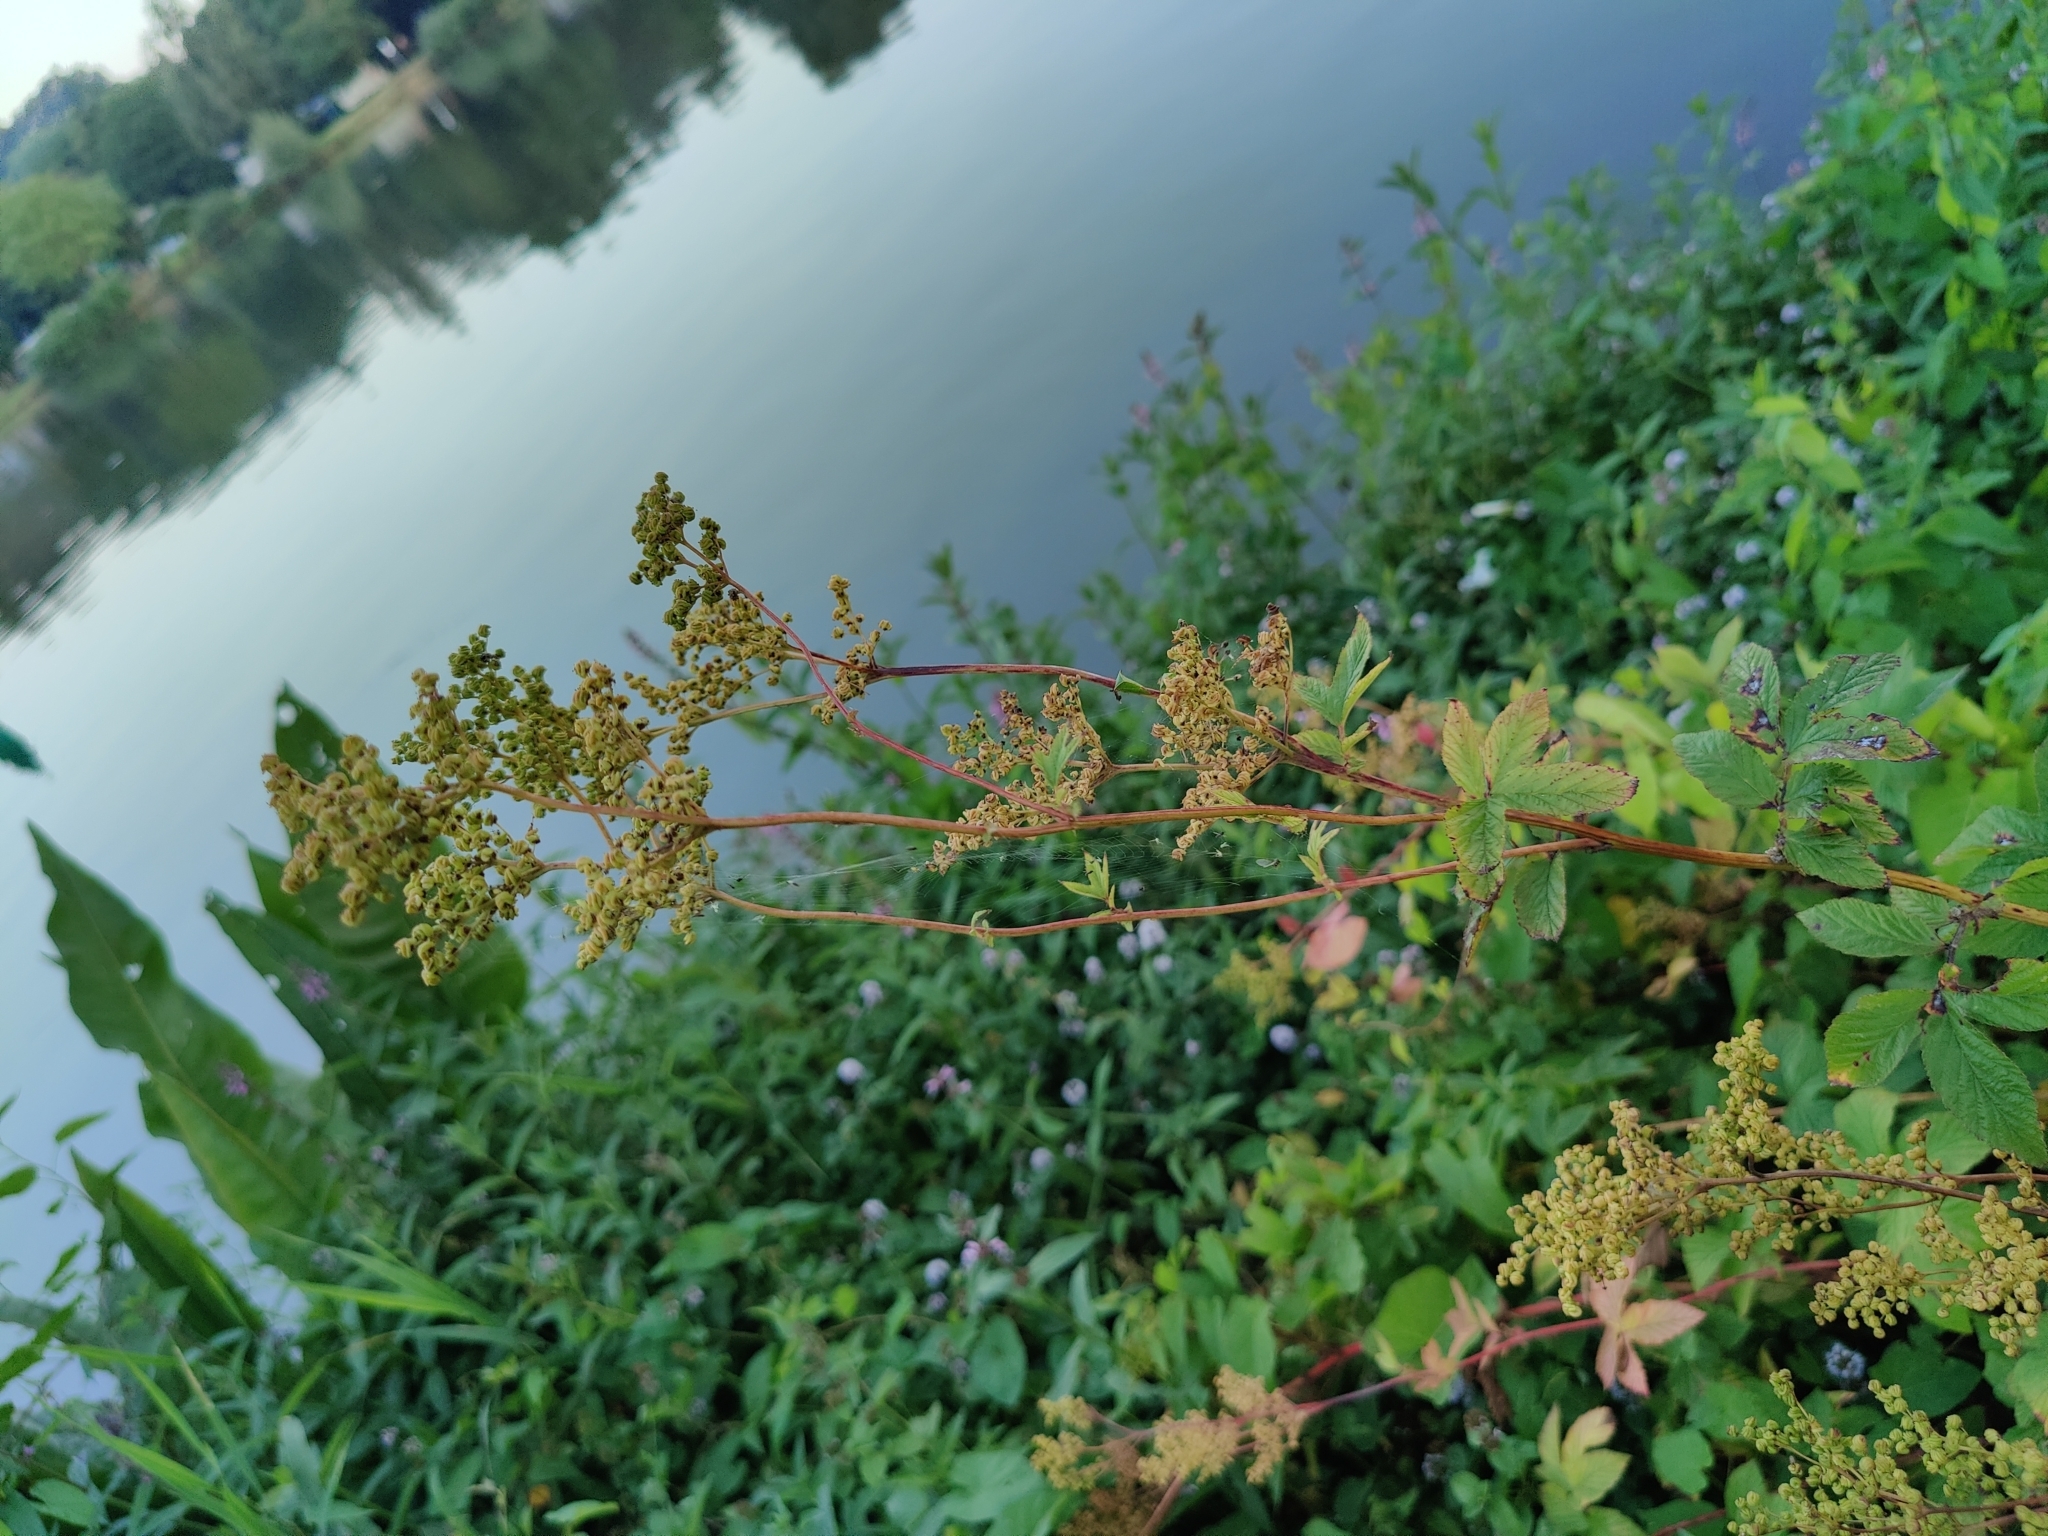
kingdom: Plantae
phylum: Tracheophyta
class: Magnoliopsida
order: Rosales
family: Rosaceae
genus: Filipendula
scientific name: Filipendula ulmaria
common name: Meadowsweet
